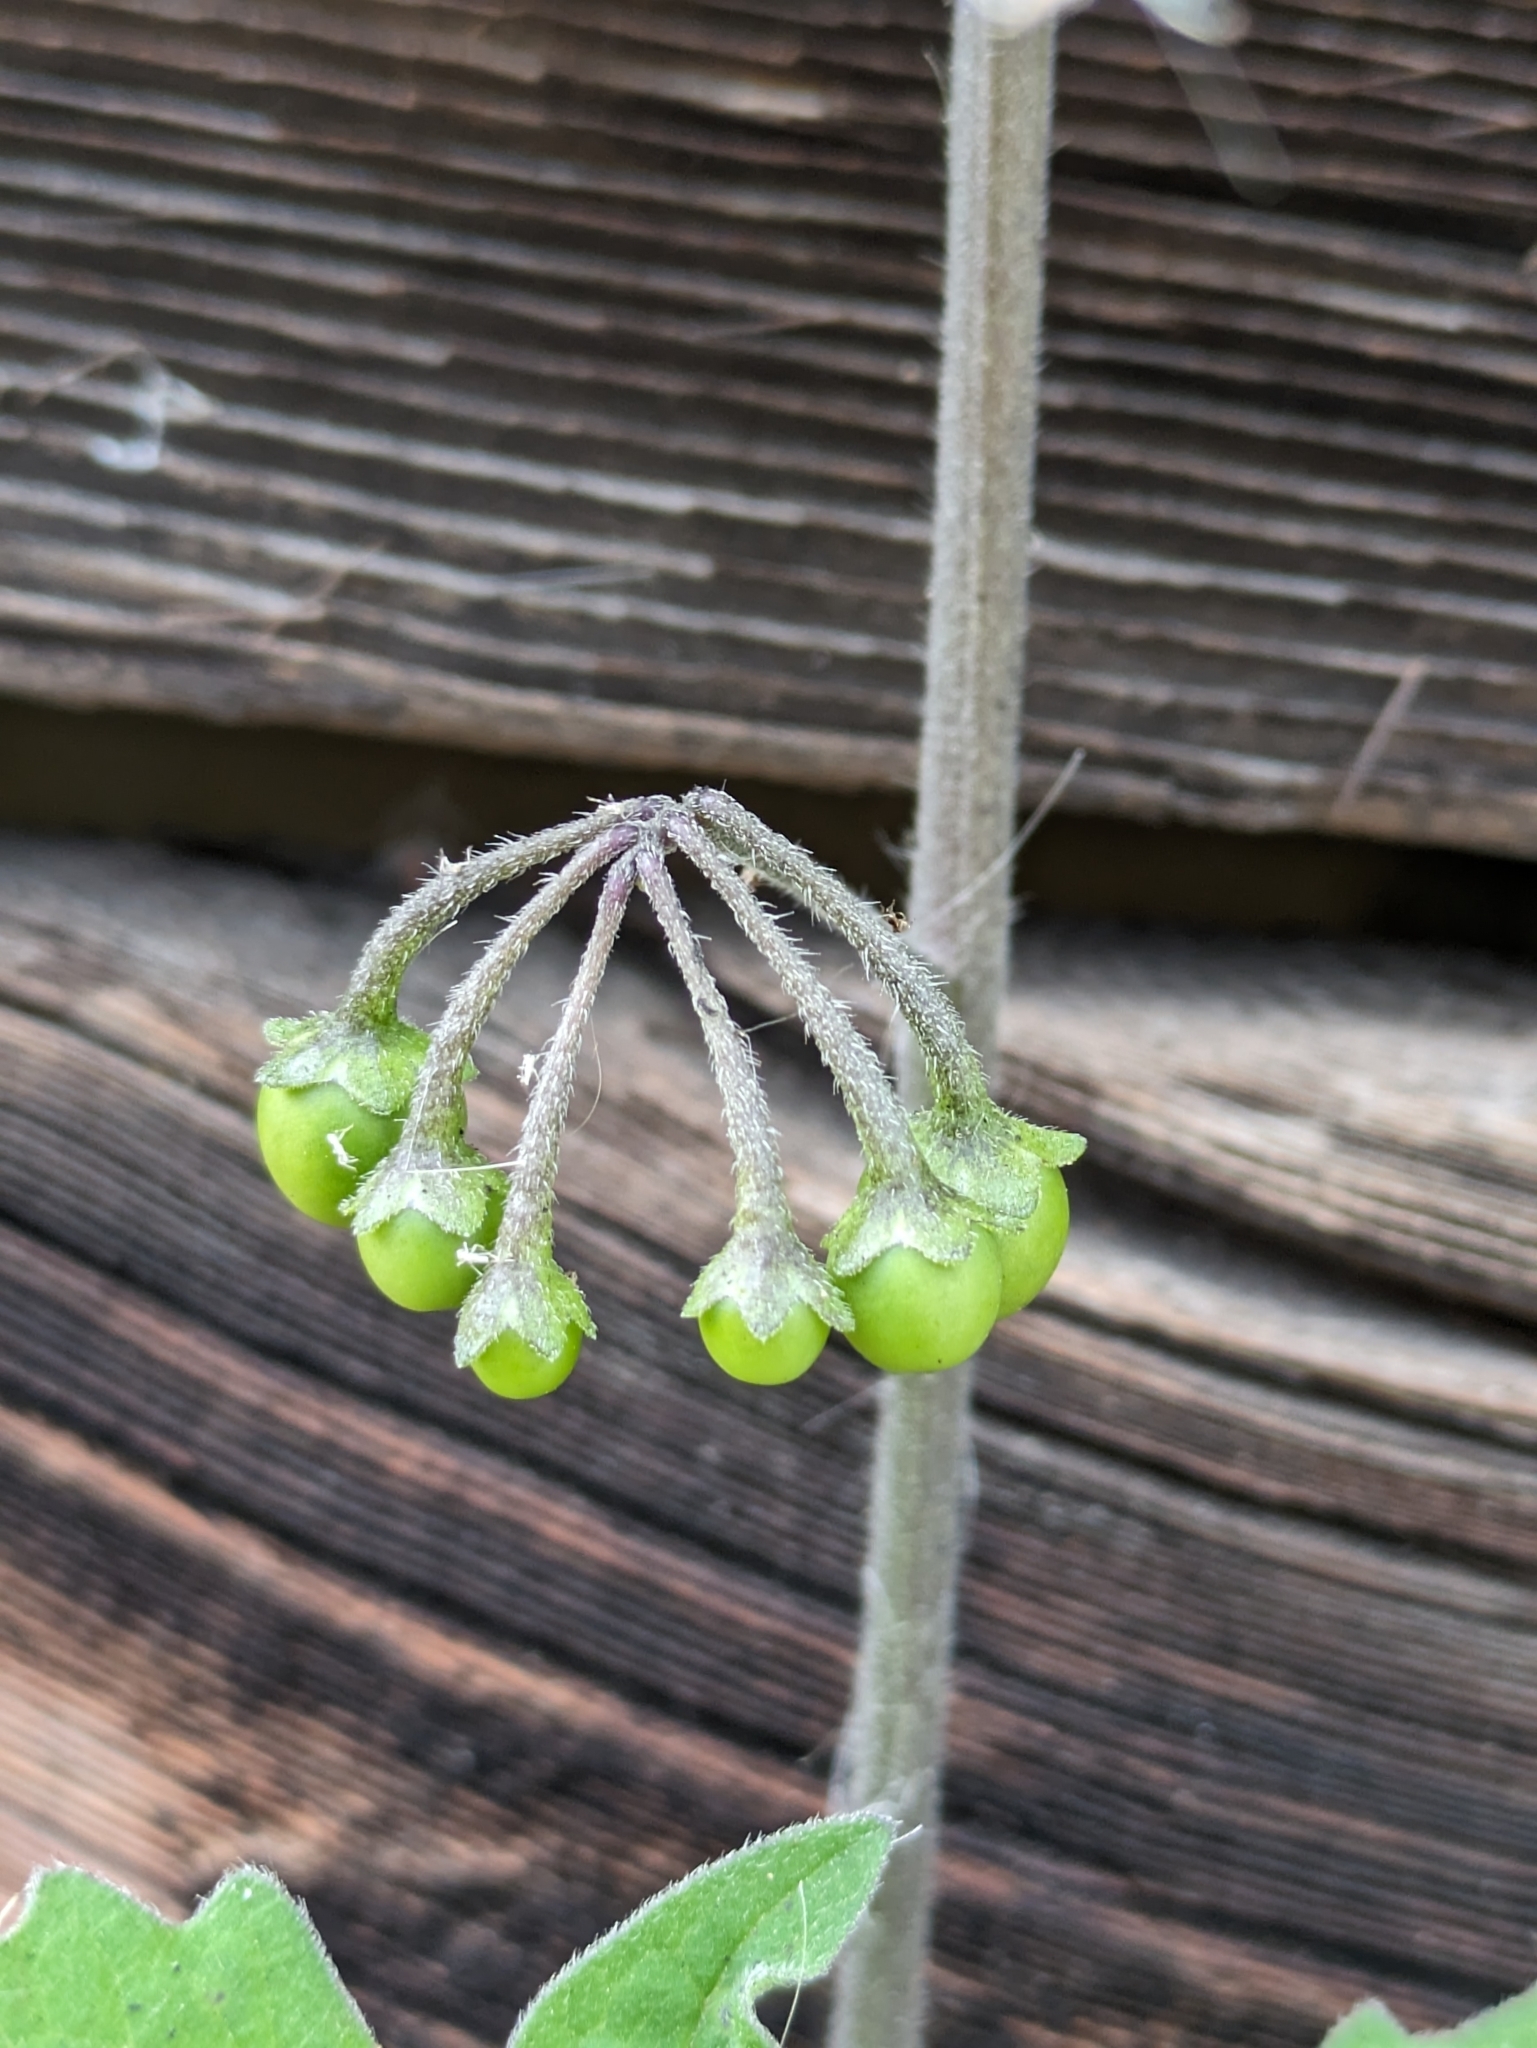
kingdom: Plantae
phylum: Tracheophyta
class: Magnoliopsida
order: Solanales
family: Solanaceae
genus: Solanum
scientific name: Solanum nigrum
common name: Black nightshade
